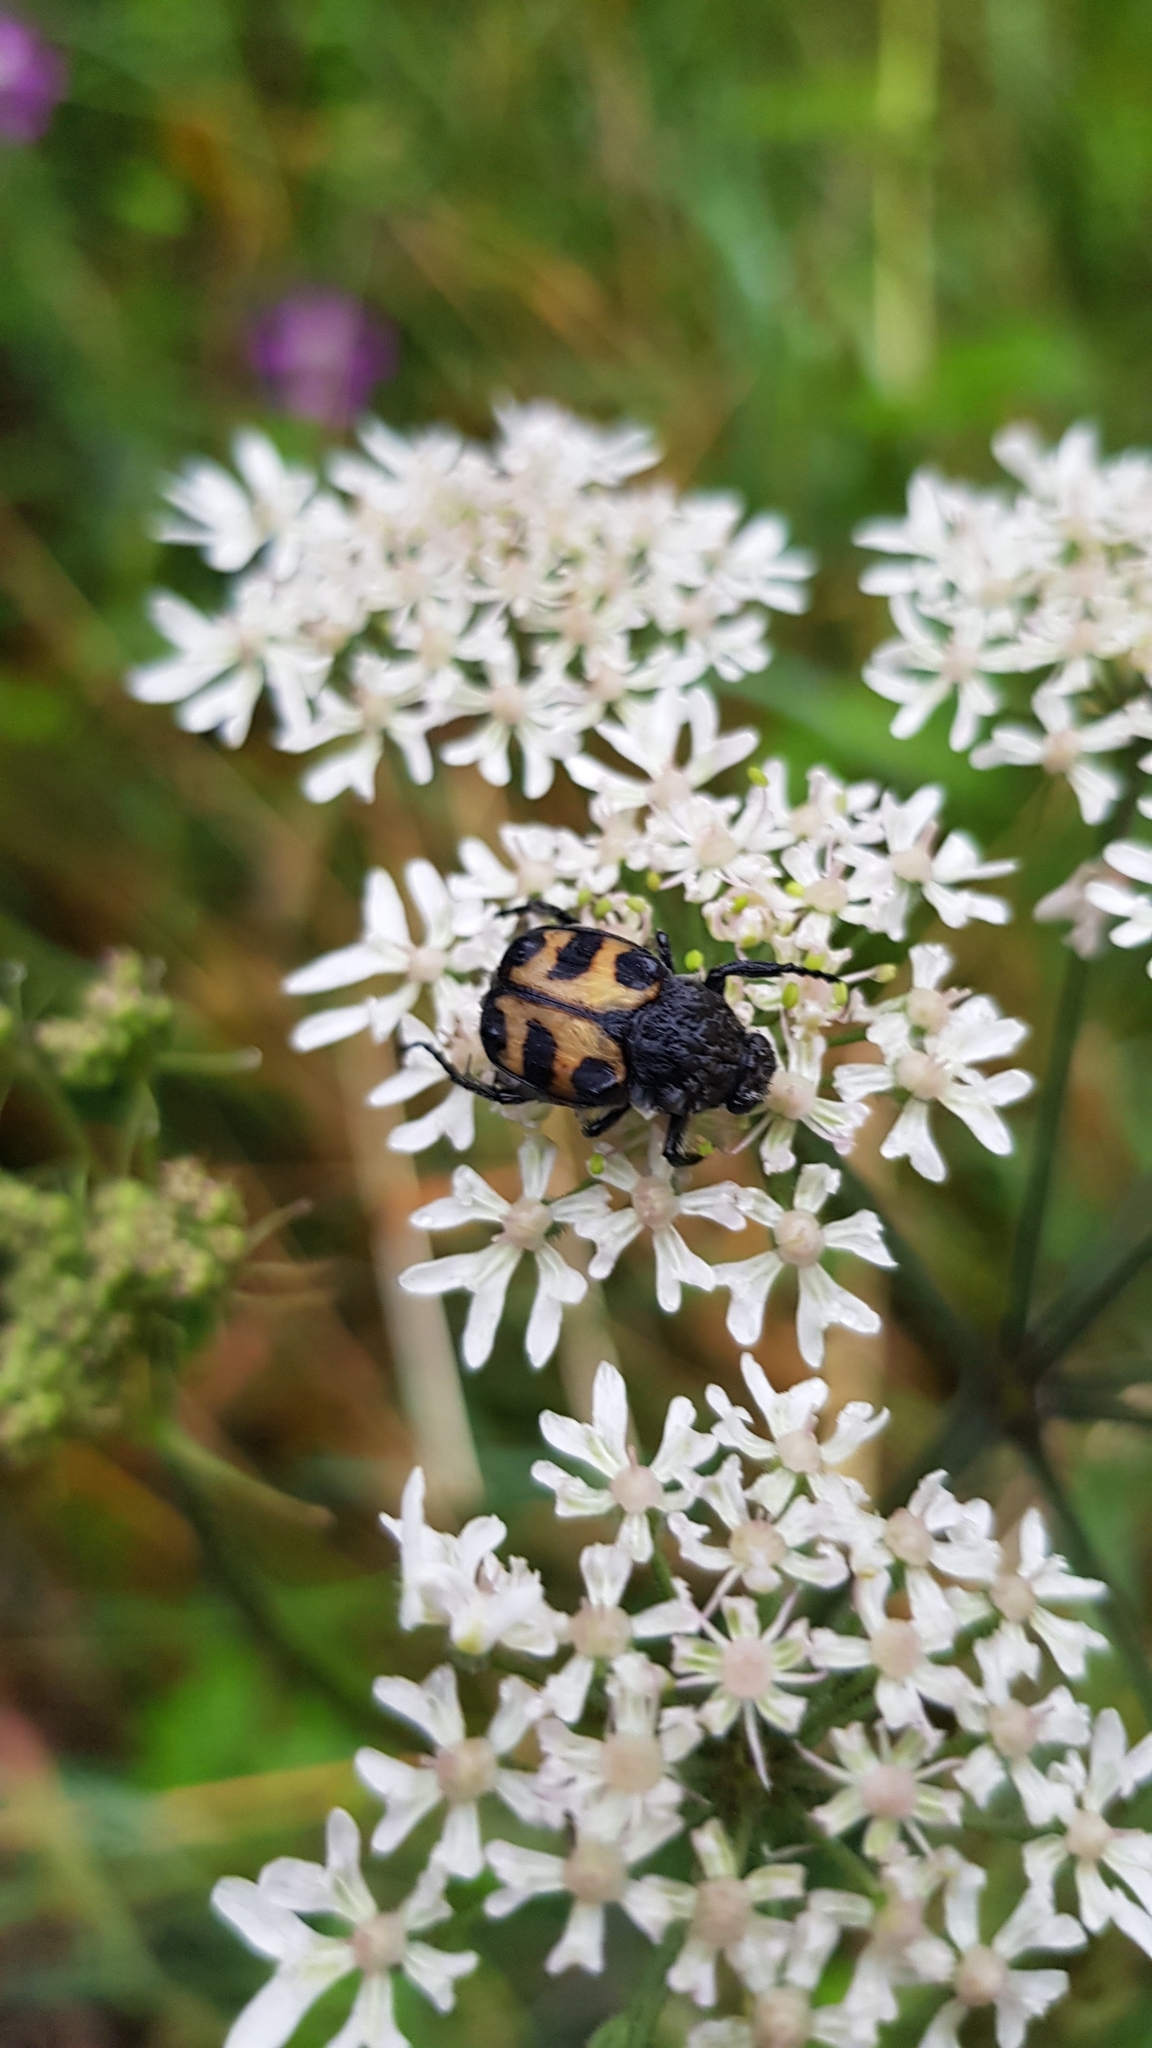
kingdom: Animalia
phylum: Arthropoda
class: Insecta
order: Coleoptera
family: Scarabaeidae
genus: Trichius
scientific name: Trichius gallicus
